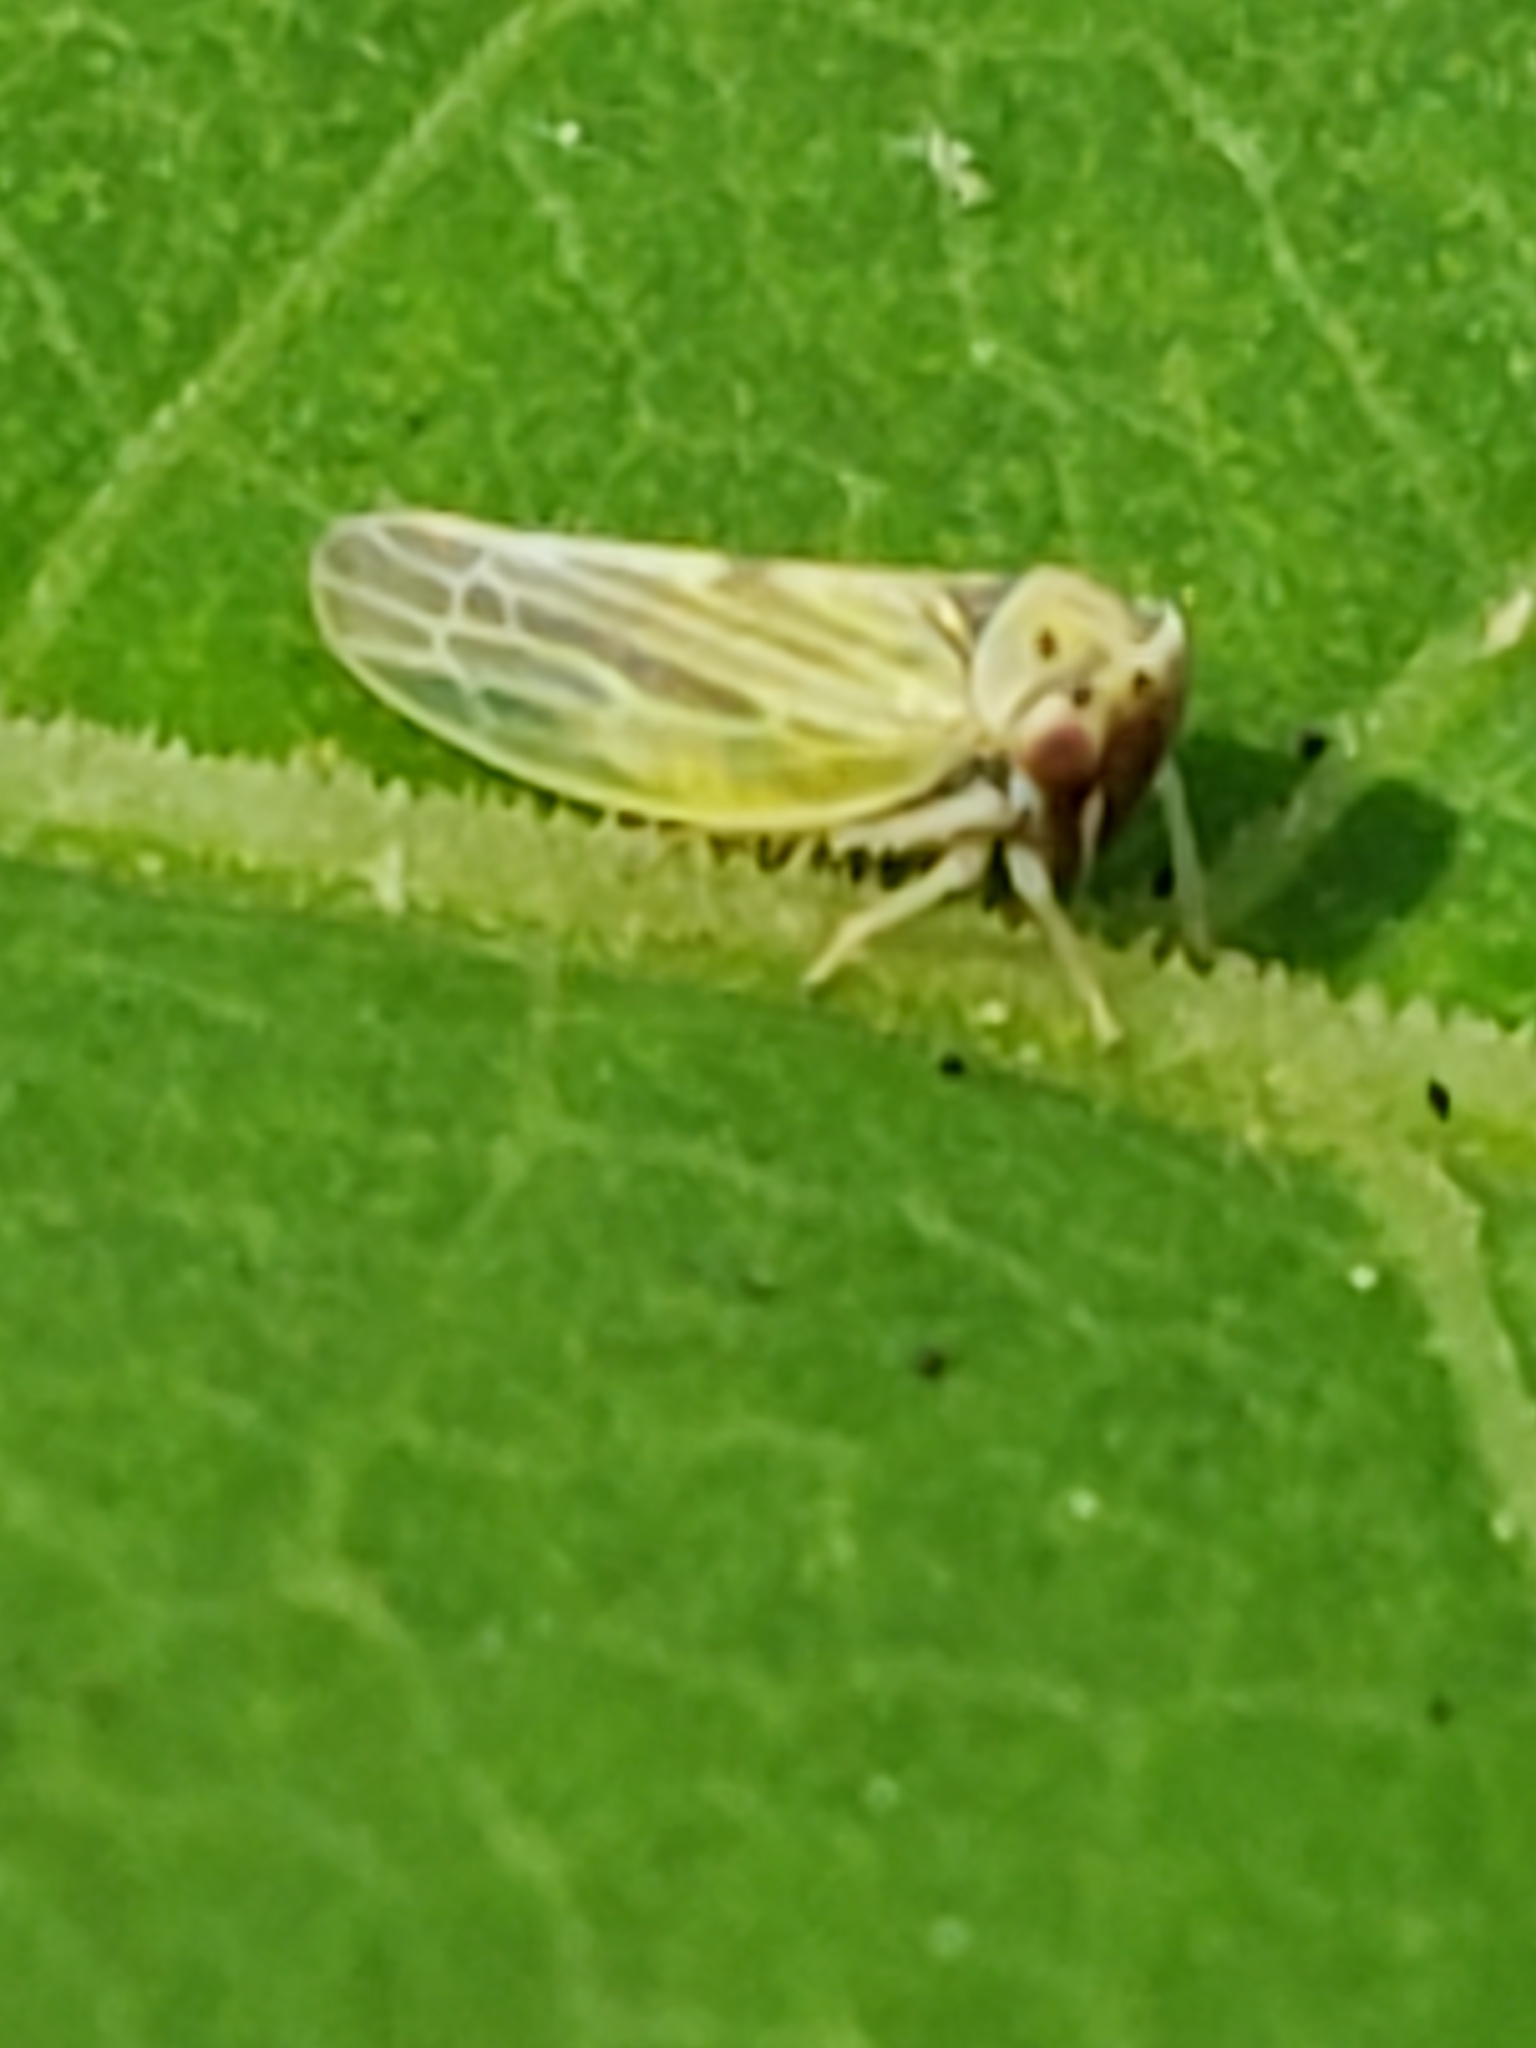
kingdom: Animalia
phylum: Arthropoda
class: Insecta
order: Hemiptera
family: Cicadellidae
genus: Agalliopsis
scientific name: Agalliopsis ancistra
